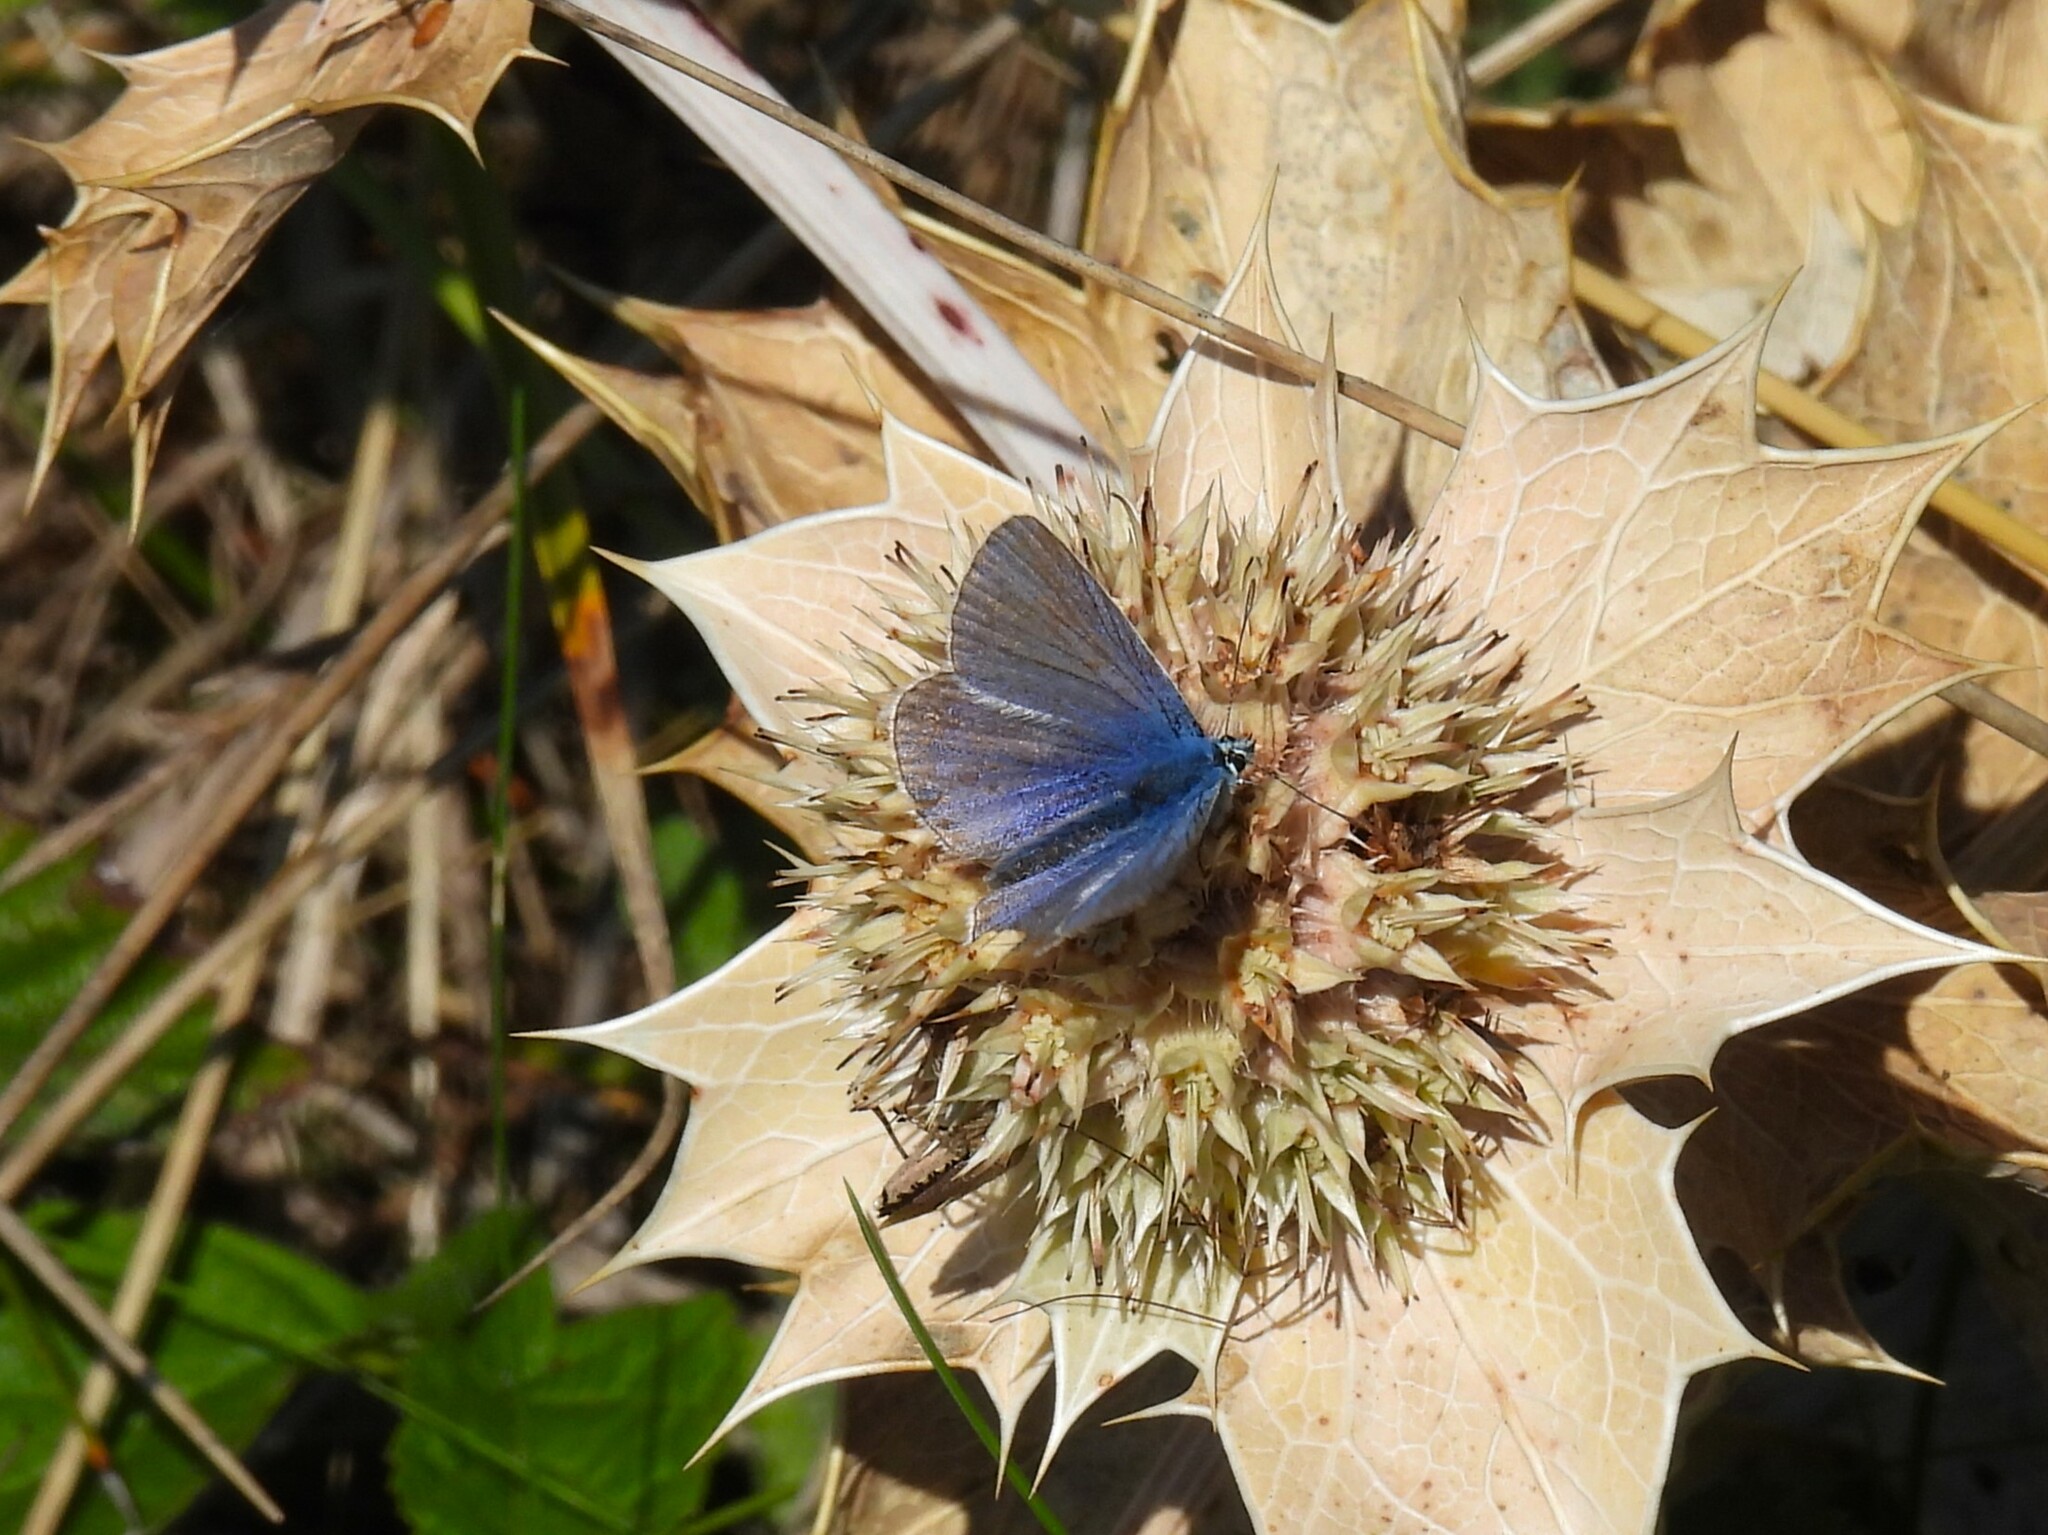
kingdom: Animalia
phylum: Arthropoda
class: Insecta
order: Lepidoptera
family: Lycaenidae
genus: Polyommatus
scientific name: Polyommatus icarus
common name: Common blue
